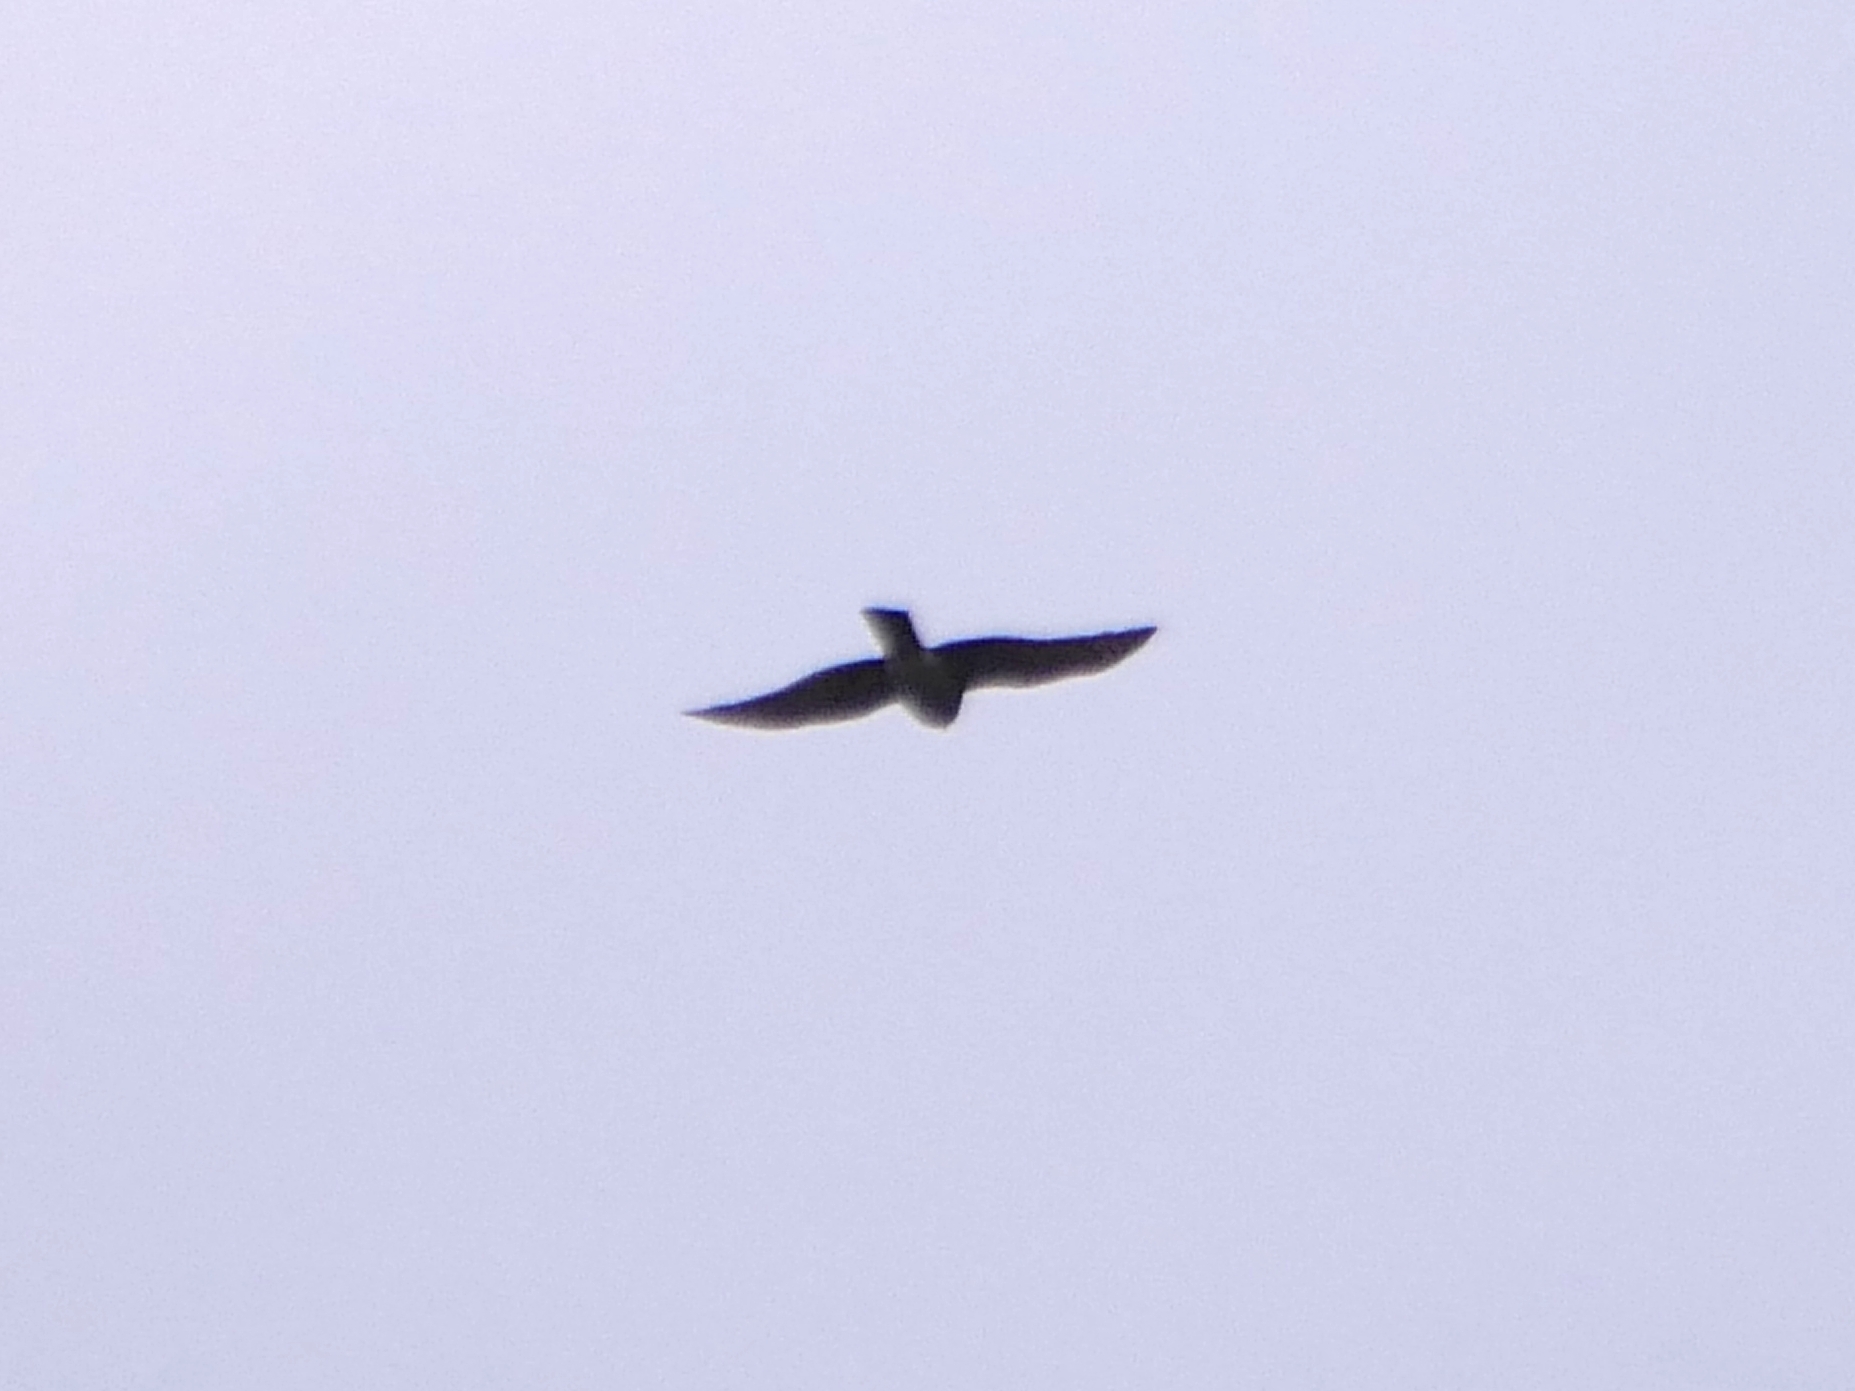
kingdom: Animalia
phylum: Chordata
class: Aves
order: Accipitriformes
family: Accipitridae
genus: Accipiter
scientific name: Accipiter nisus
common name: Eurasian sparrowhawk
